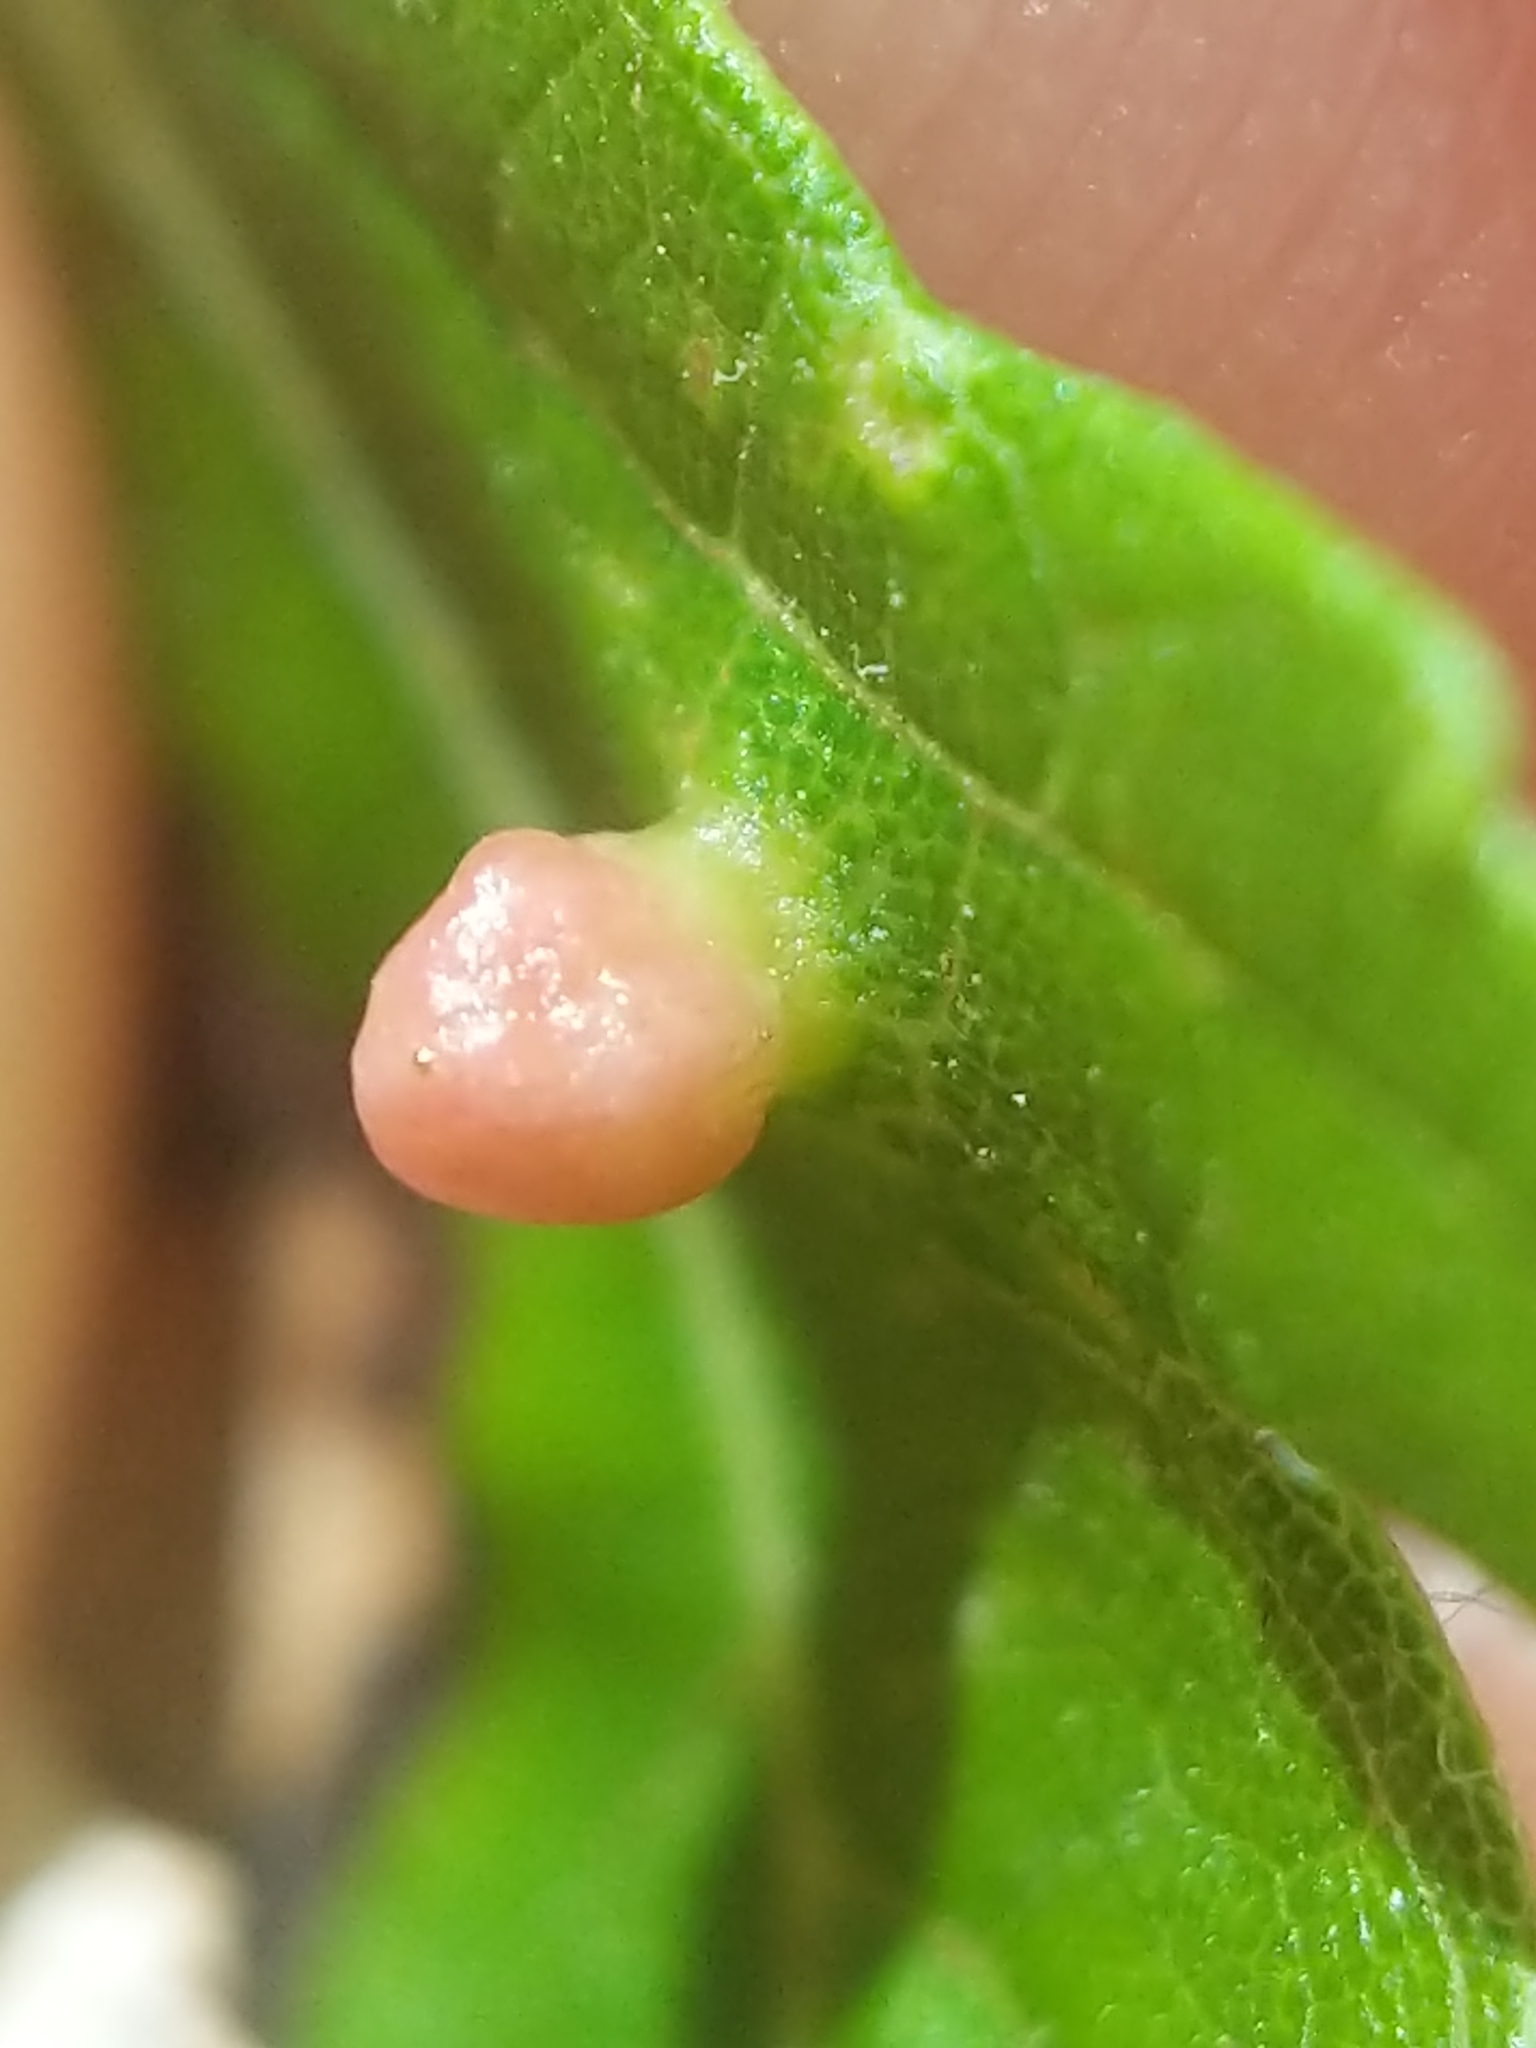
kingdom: Animalia
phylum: Arthropoda
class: Arachnida
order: Trombidiformes
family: Eriophyidae
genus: Vasates
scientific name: Vasates quadripedes
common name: Maple bladder gall mite
